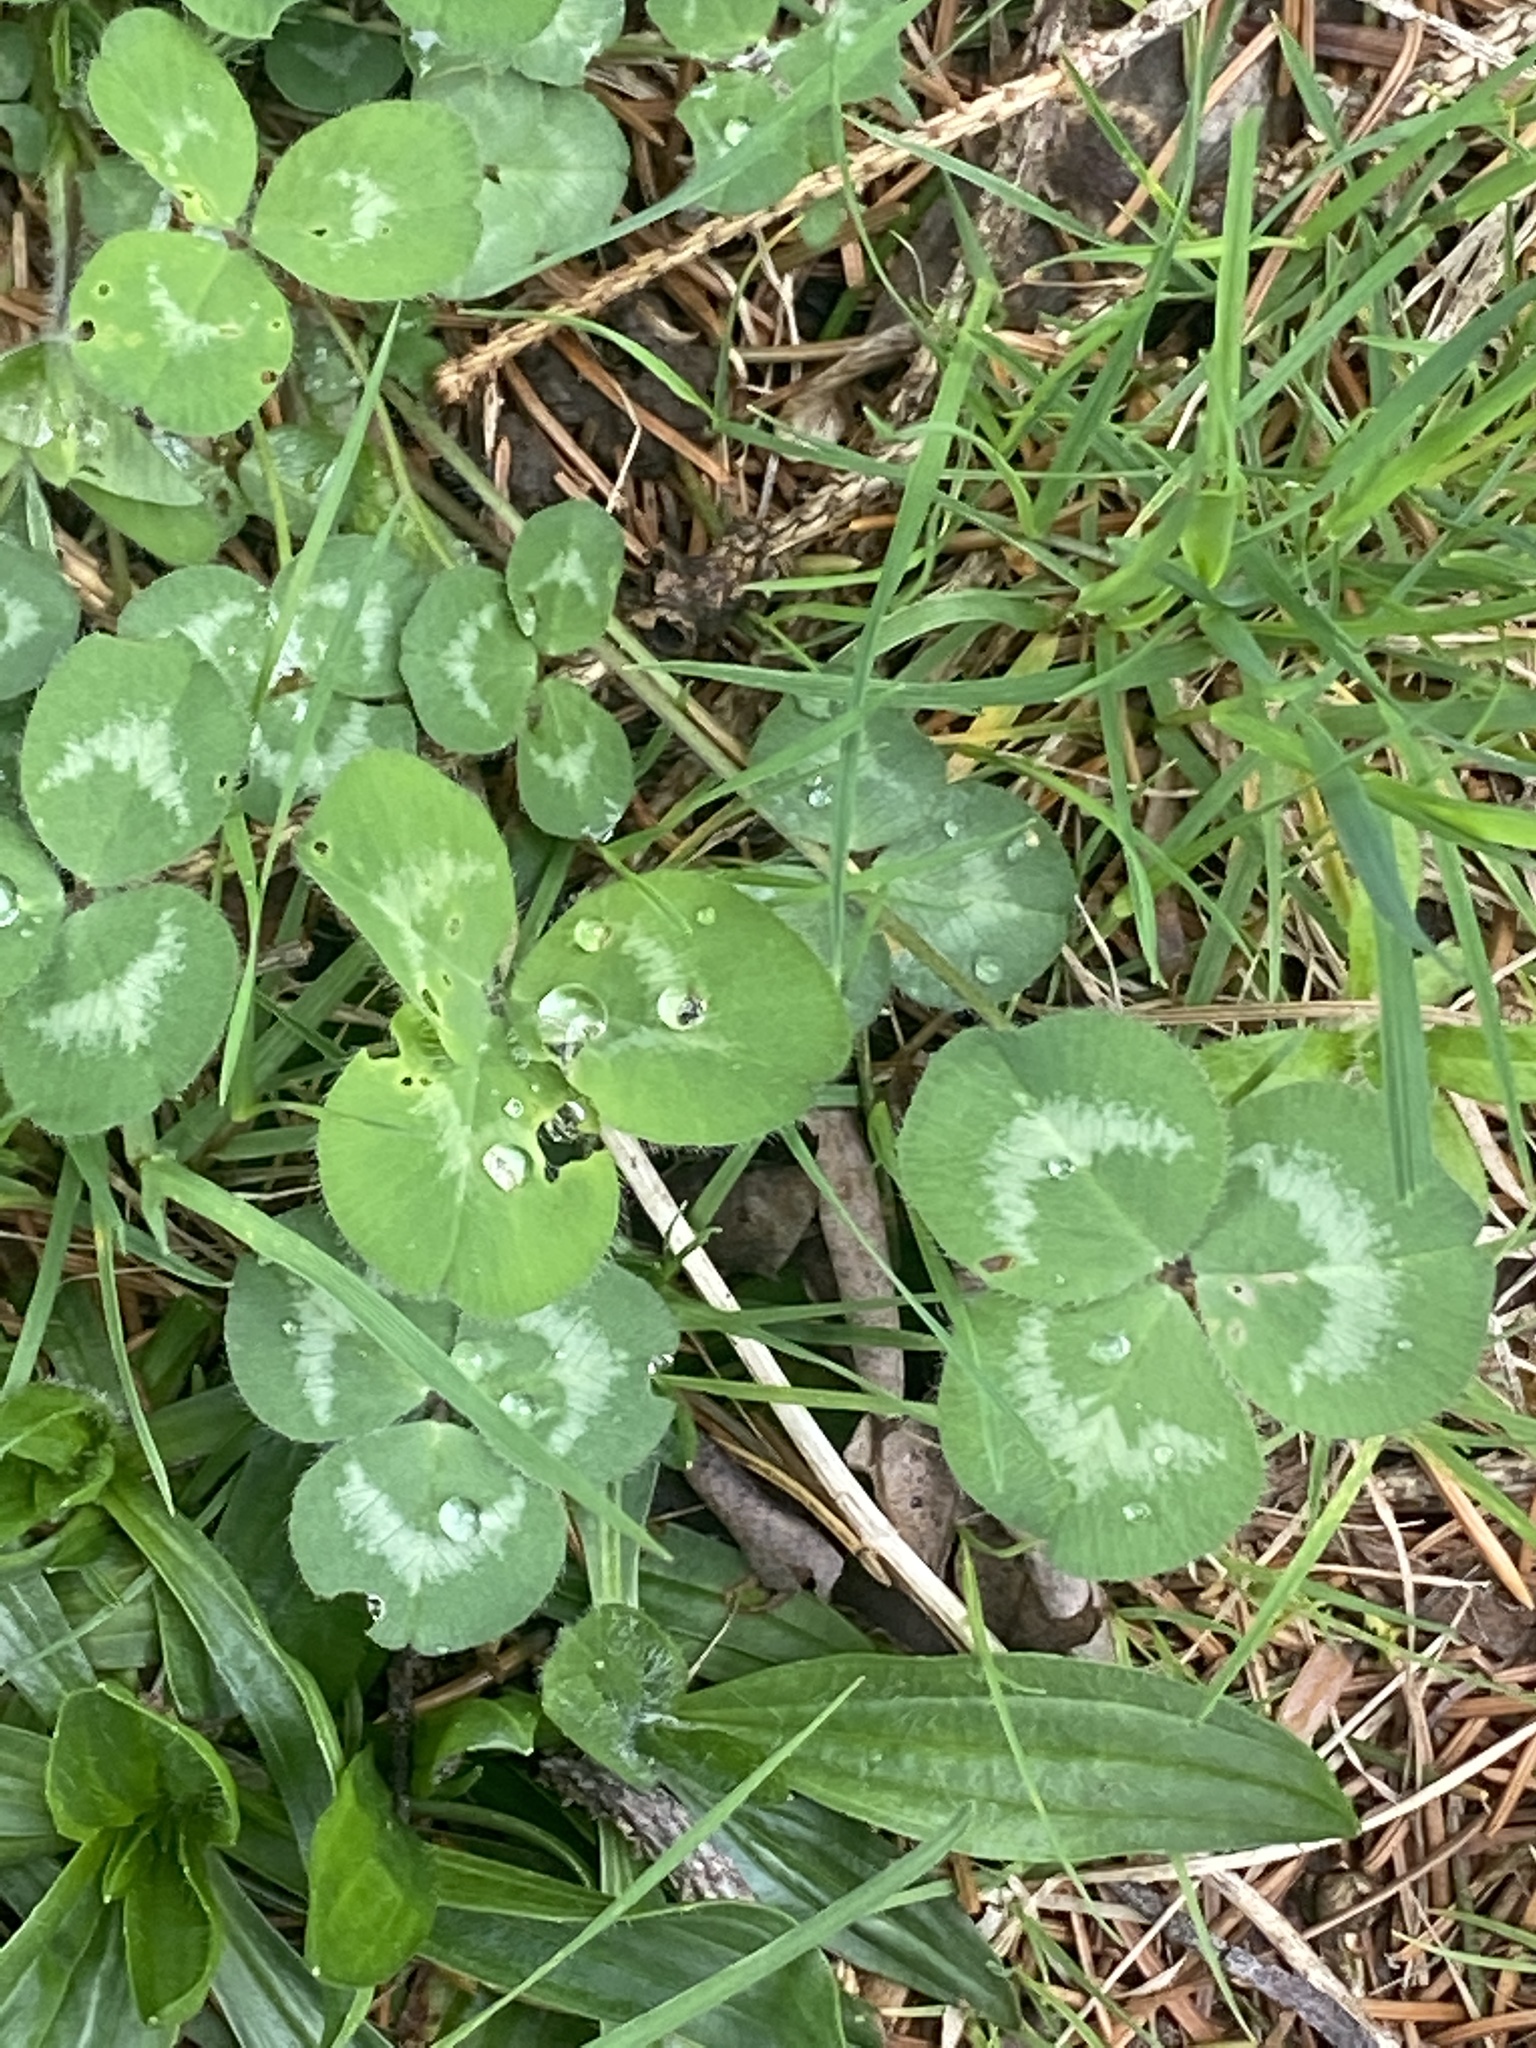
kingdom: Plantae
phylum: Tracheophyta
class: Magnoliopsida
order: Fabales
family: Fabaceae
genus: Trifolium
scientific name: Trifolium pratense
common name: Red clover
